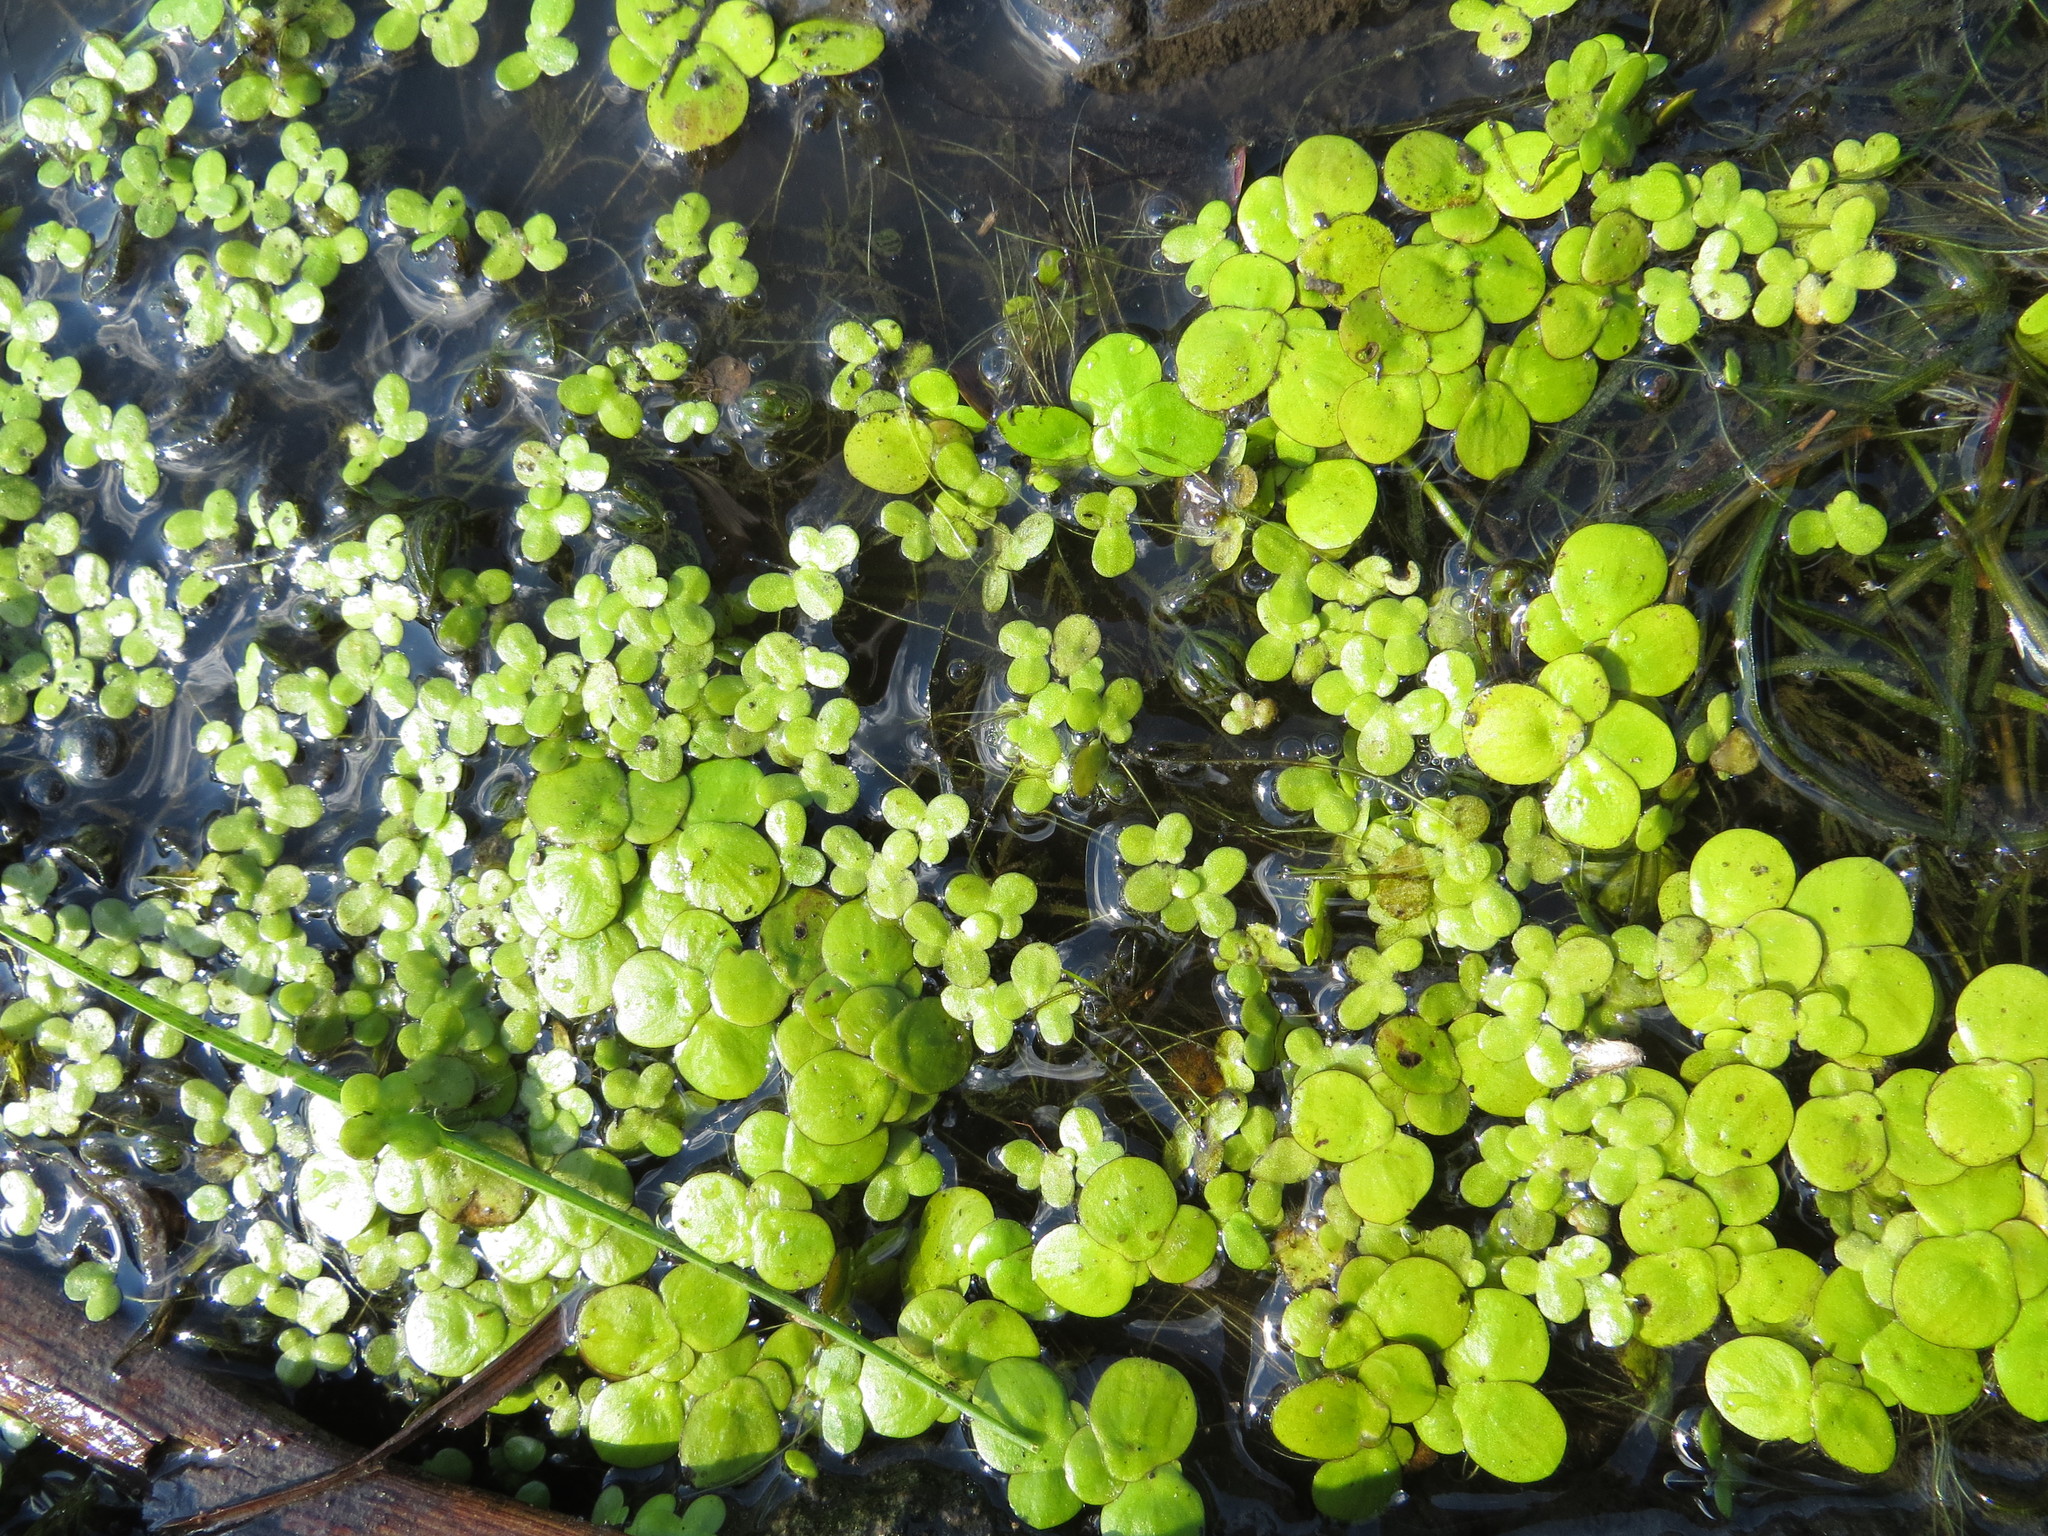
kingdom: Plantae
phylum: Tracheophyta
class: Liliopsida
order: Alismatales
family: Araceae
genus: Spirodela
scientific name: Spirodela polyrhiza
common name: Great duckweed
